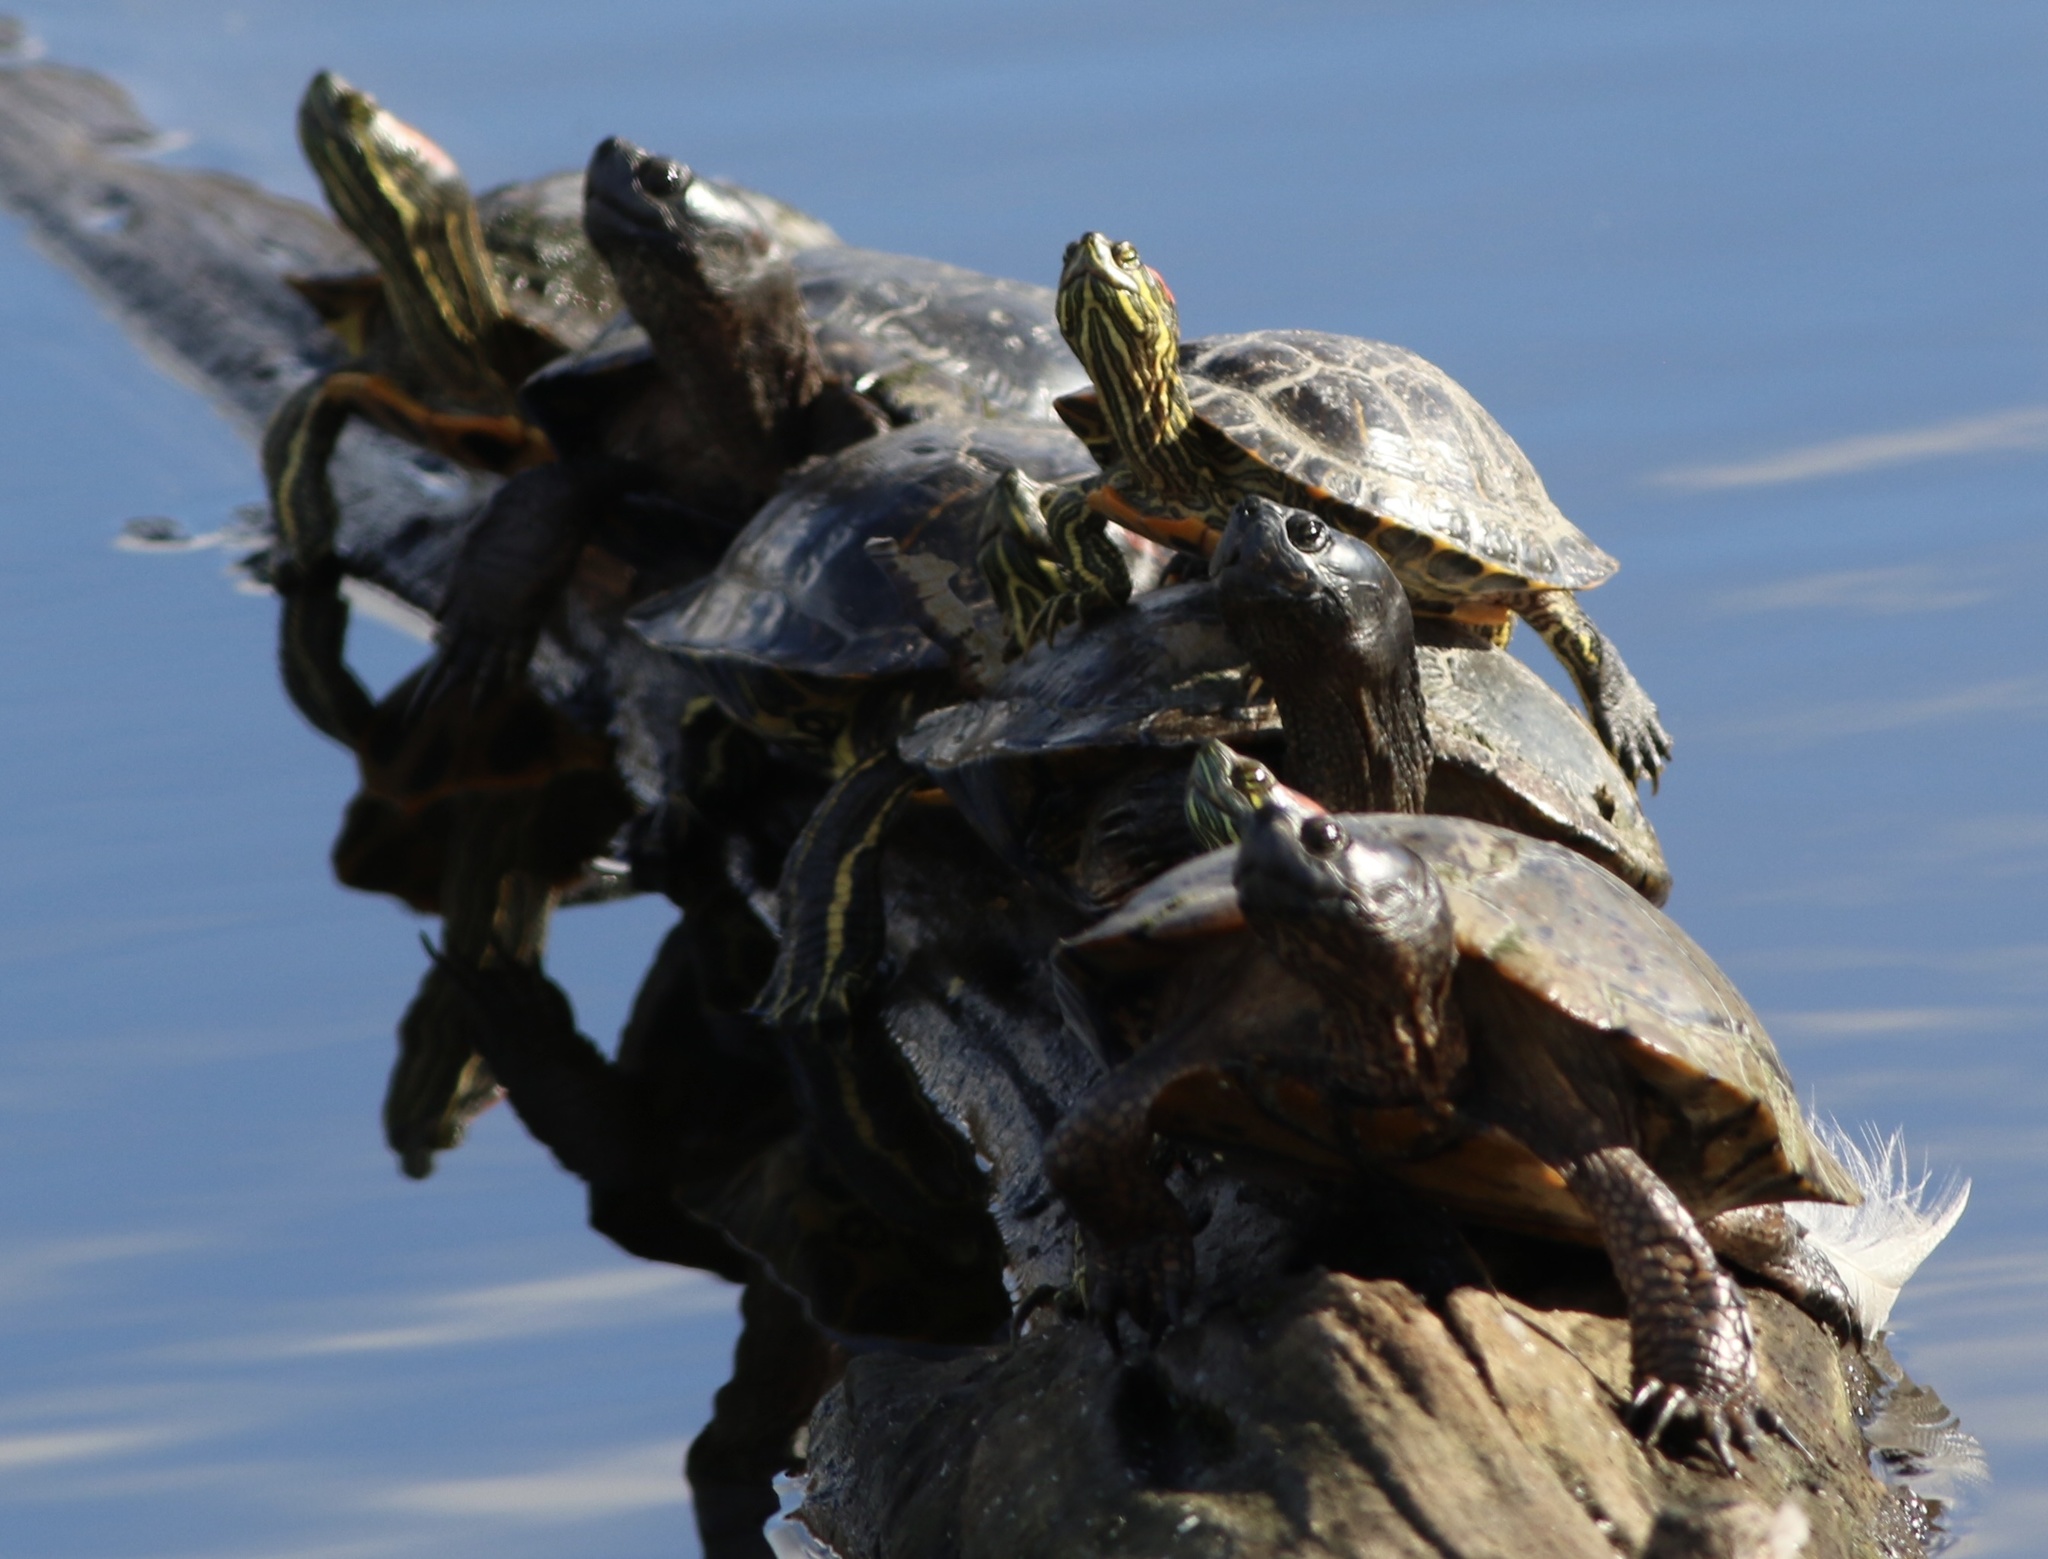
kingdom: Animalia
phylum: Chordata
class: Testudines
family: Emydidae
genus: Trachemys
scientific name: Trachemys scripta
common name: Slider
